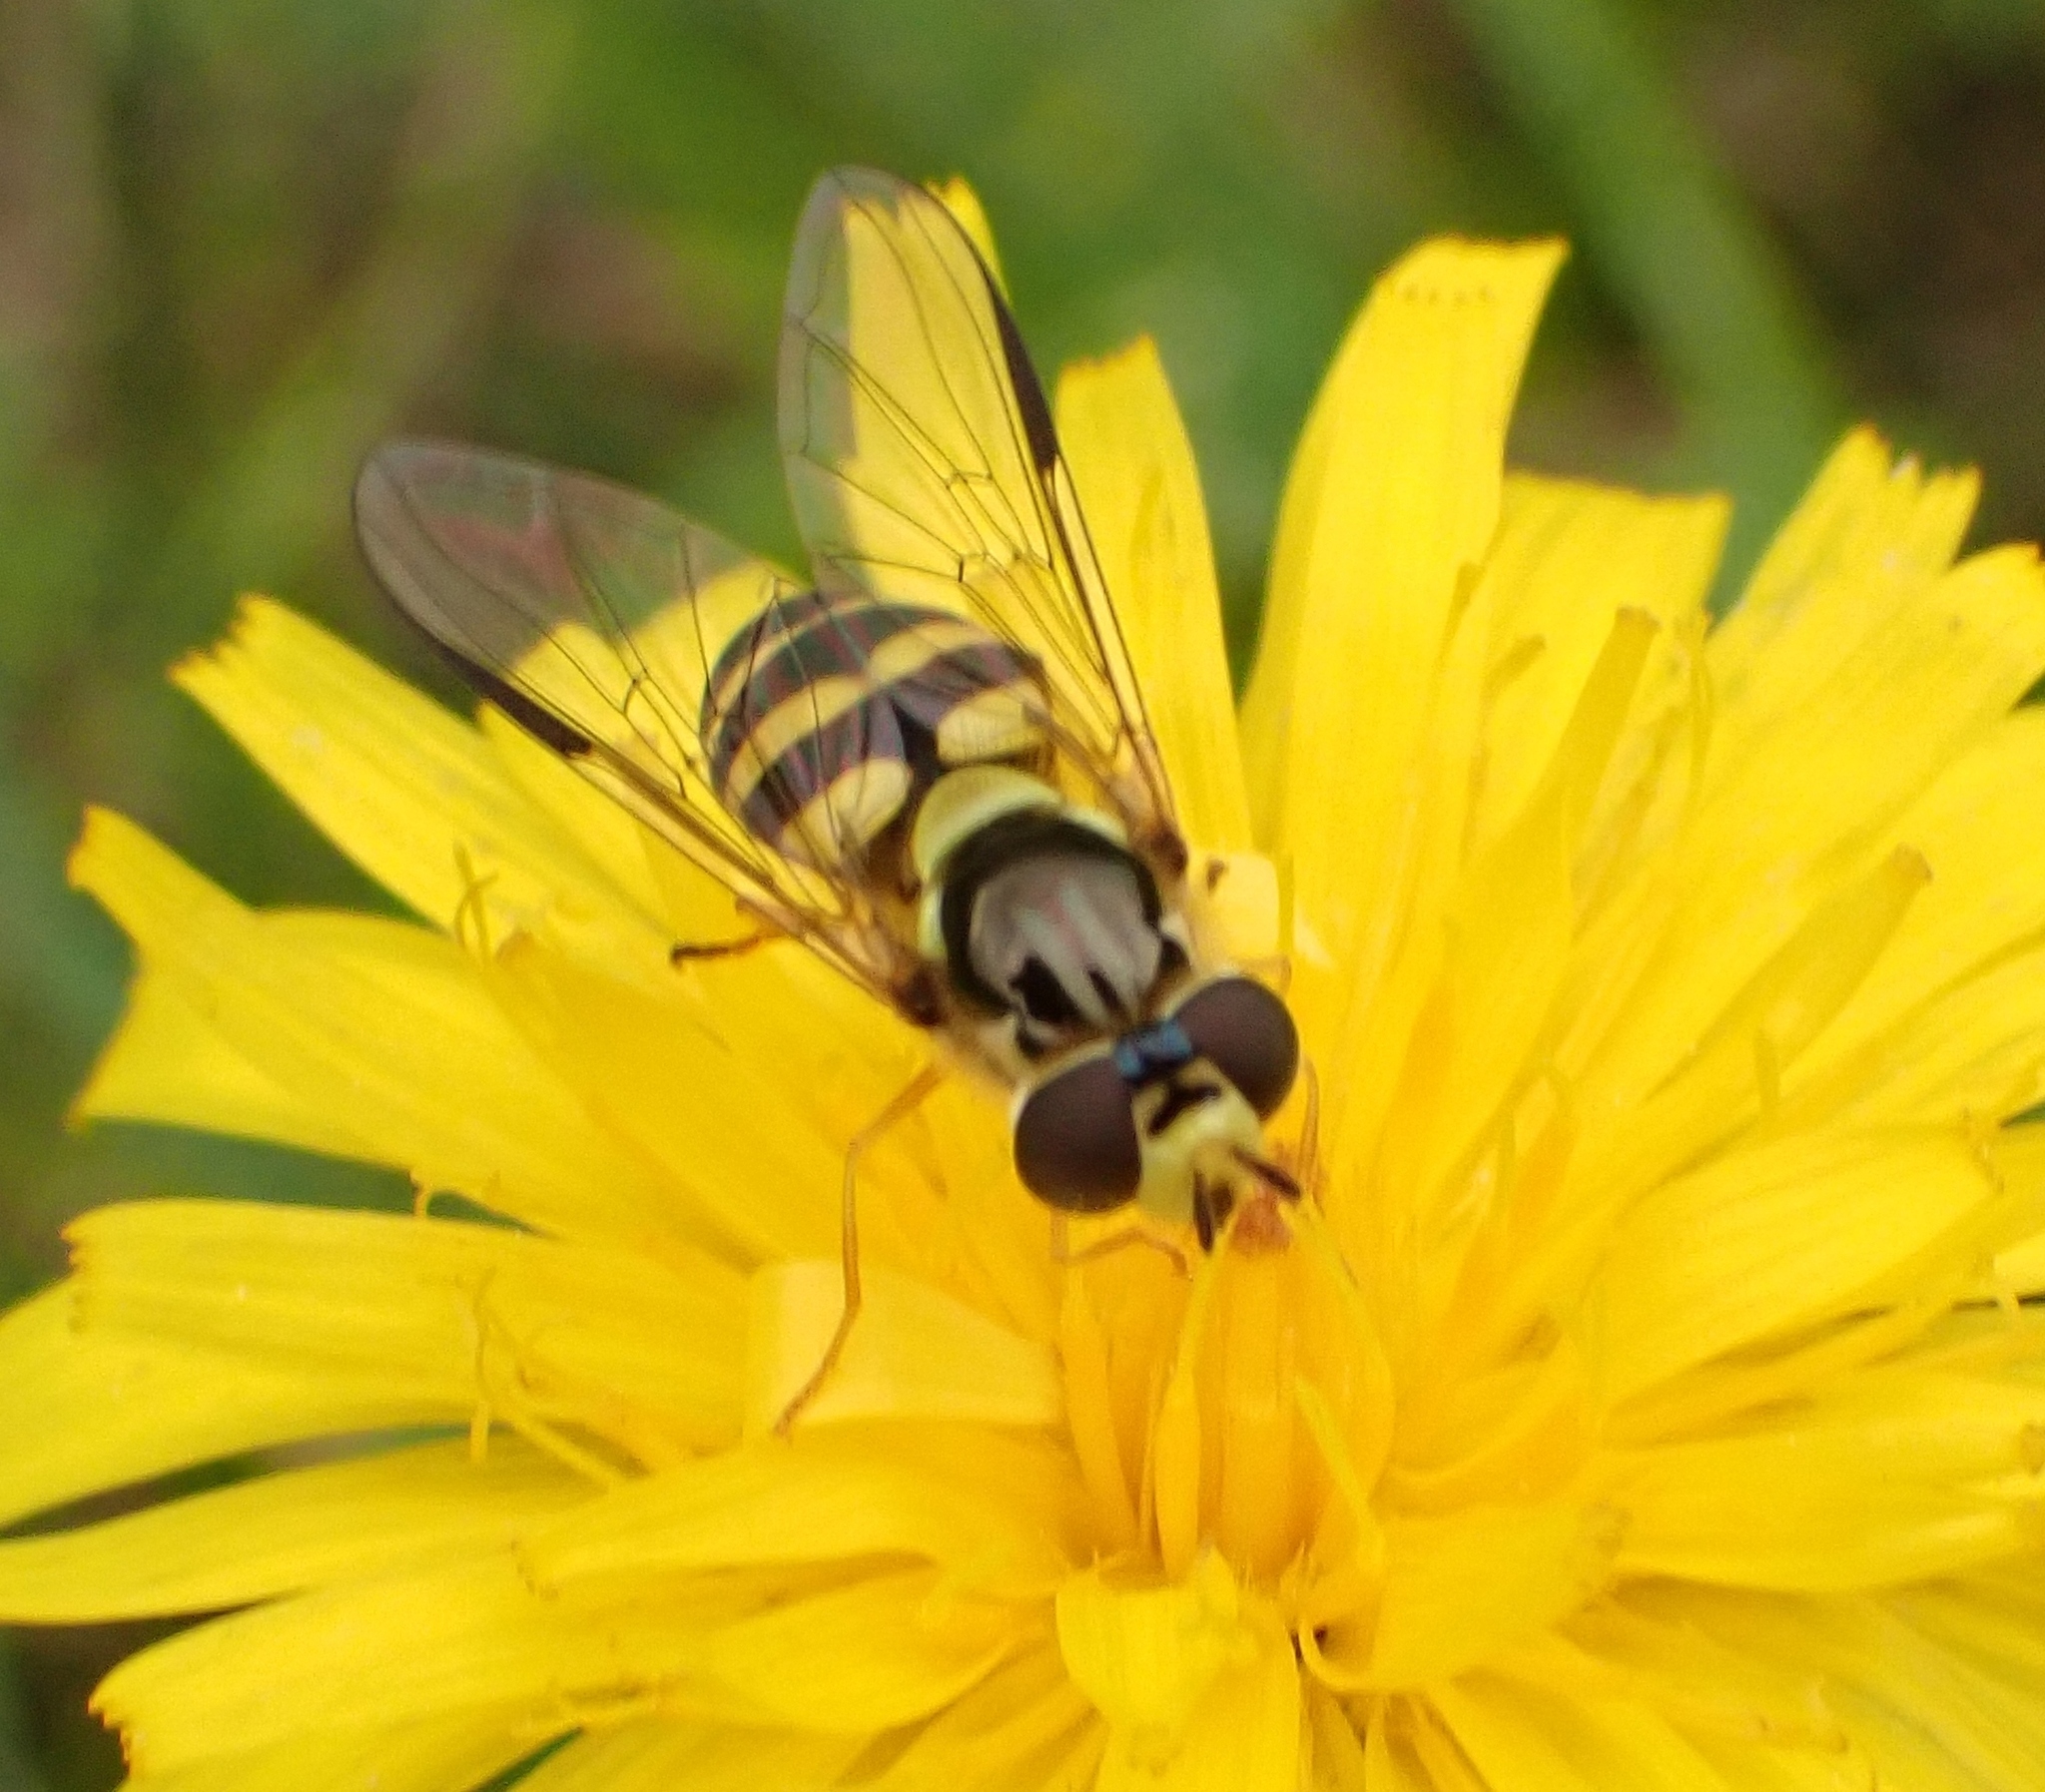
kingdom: Animalia
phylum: Arthropoda
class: Insecta
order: Diptera
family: Syrphidae
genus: Dasysyrphus
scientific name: Dasysyrphus albostriatus
